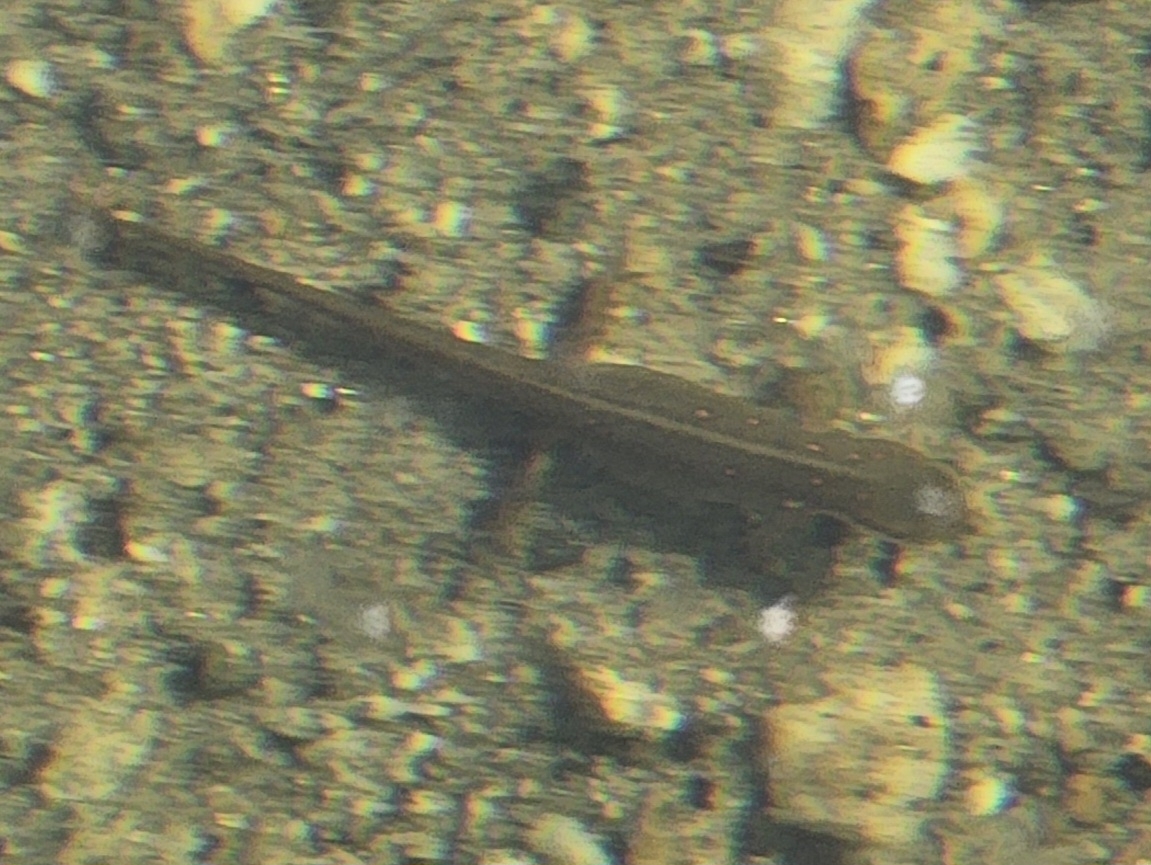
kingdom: Animalia
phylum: Chordata
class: Amphibia
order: Caudata
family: Salamandridae
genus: Notophthalmus
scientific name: Notophthalmus viridescens
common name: Eastern newt
